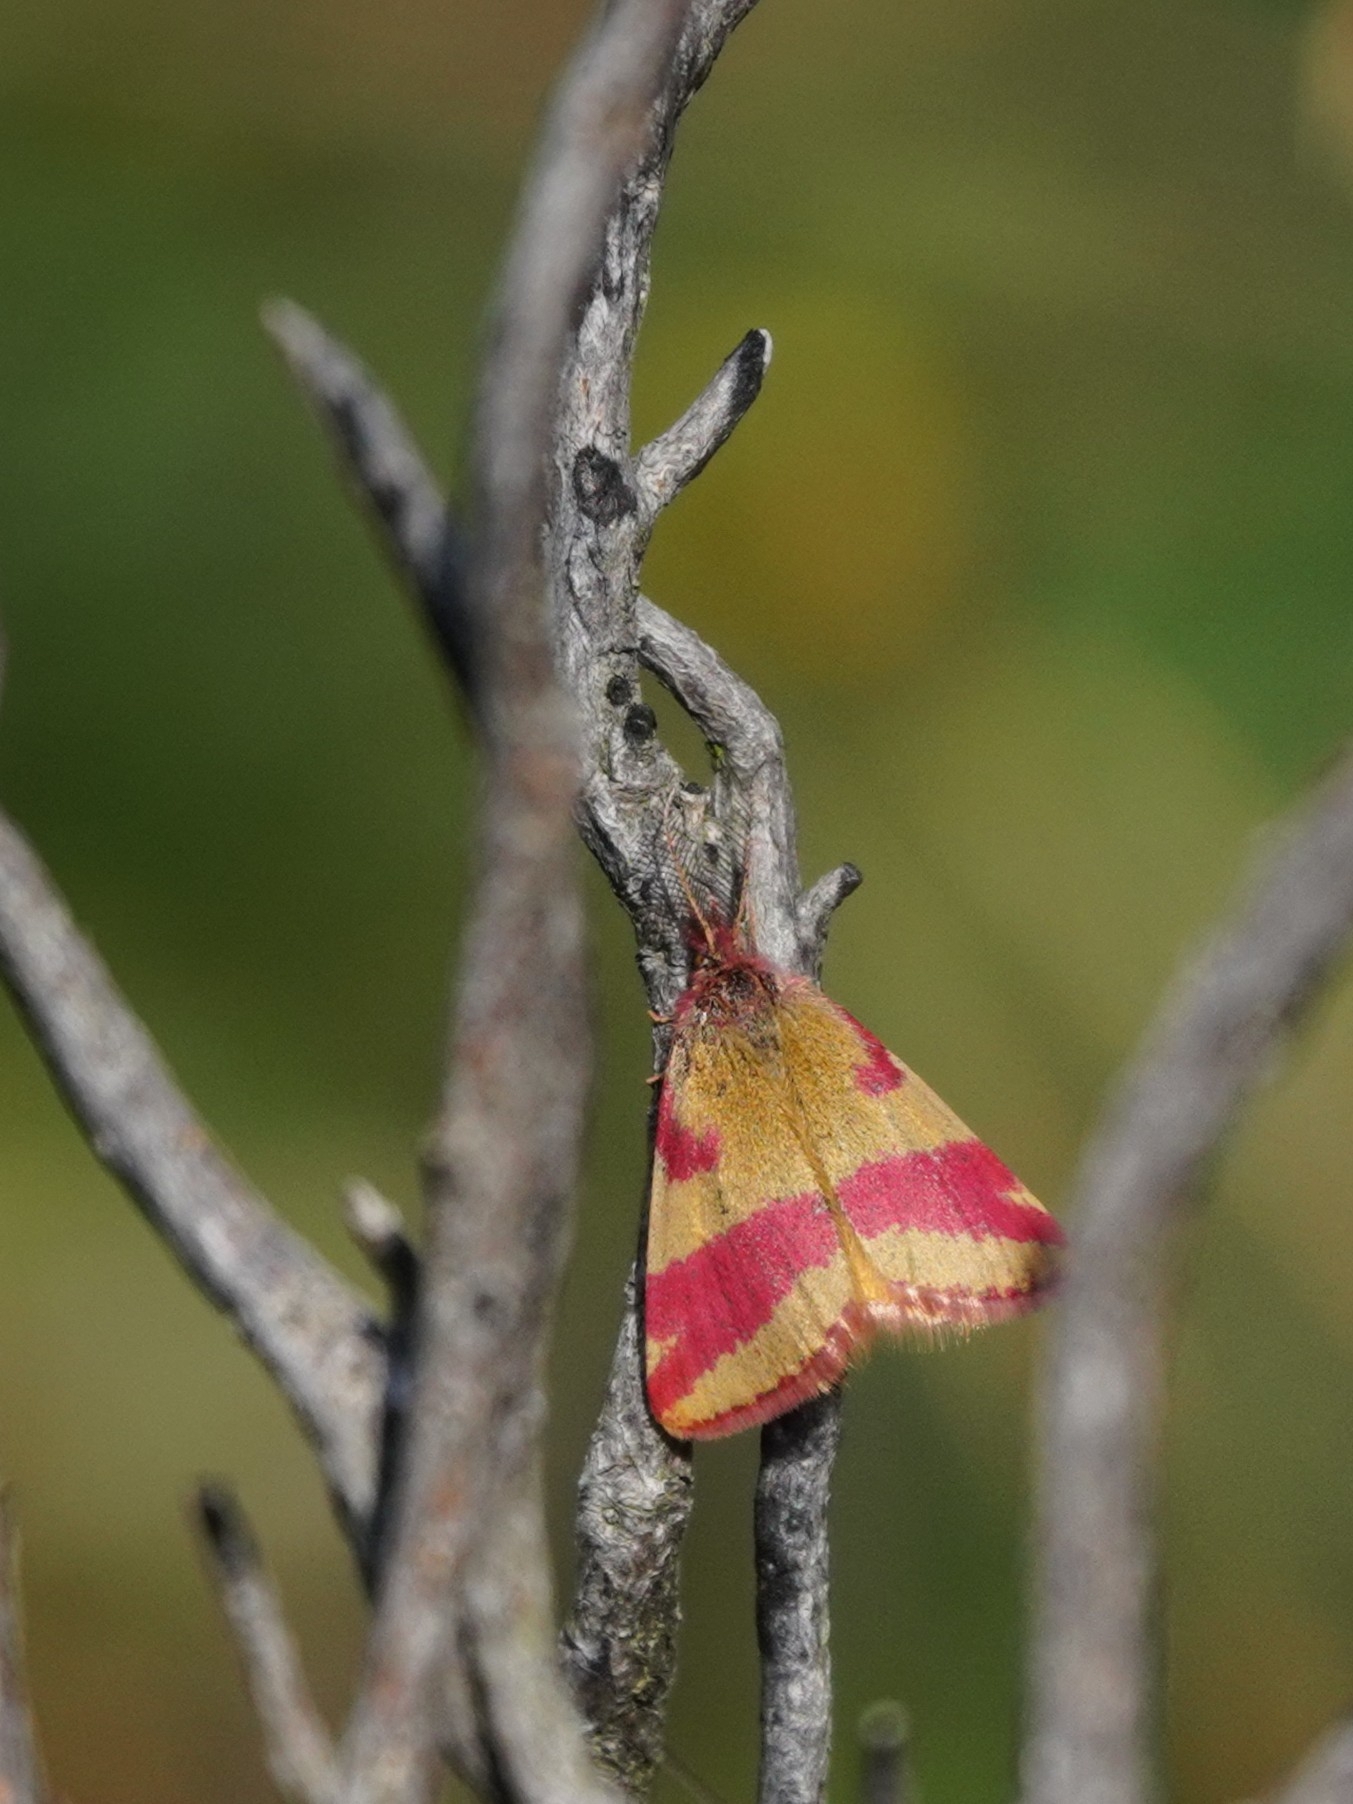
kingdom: Animalia
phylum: Arthropoda
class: Insecta
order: Lepidoptera
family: Geometridae
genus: Lythria
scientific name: Lythria cruentaria
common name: Purple-barred yellow
